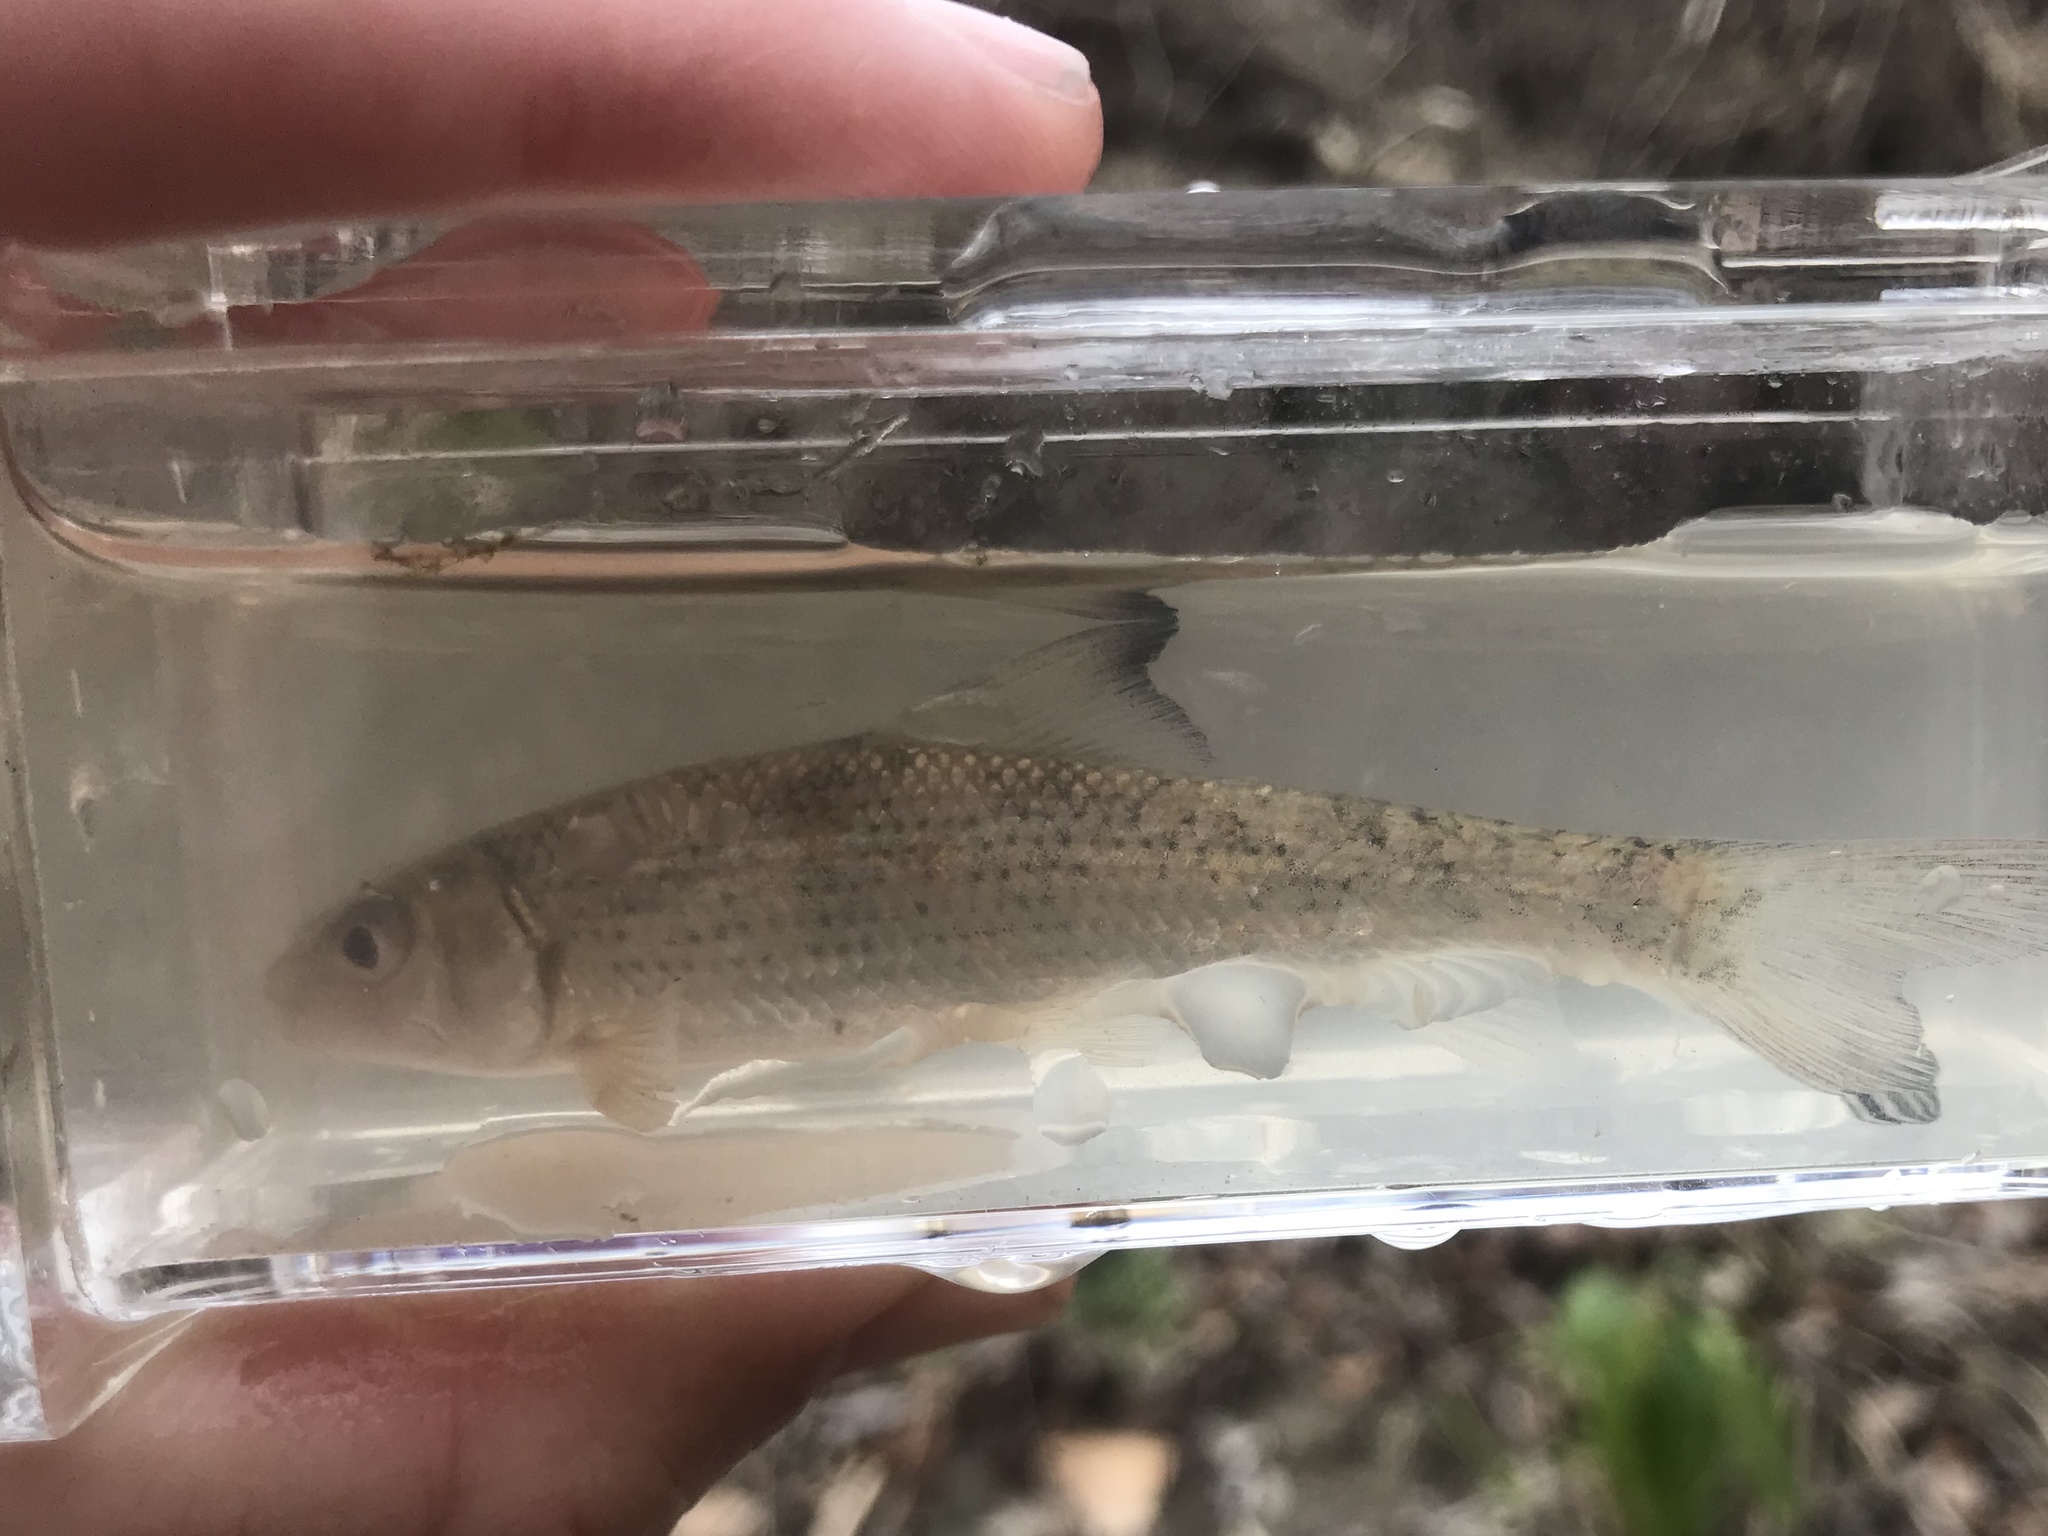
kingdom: Animalia
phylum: Chordata
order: Cypriniformes
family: Catostomidae
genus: Minytrema
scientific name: Minytrema melanops
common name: Spotted sucker
